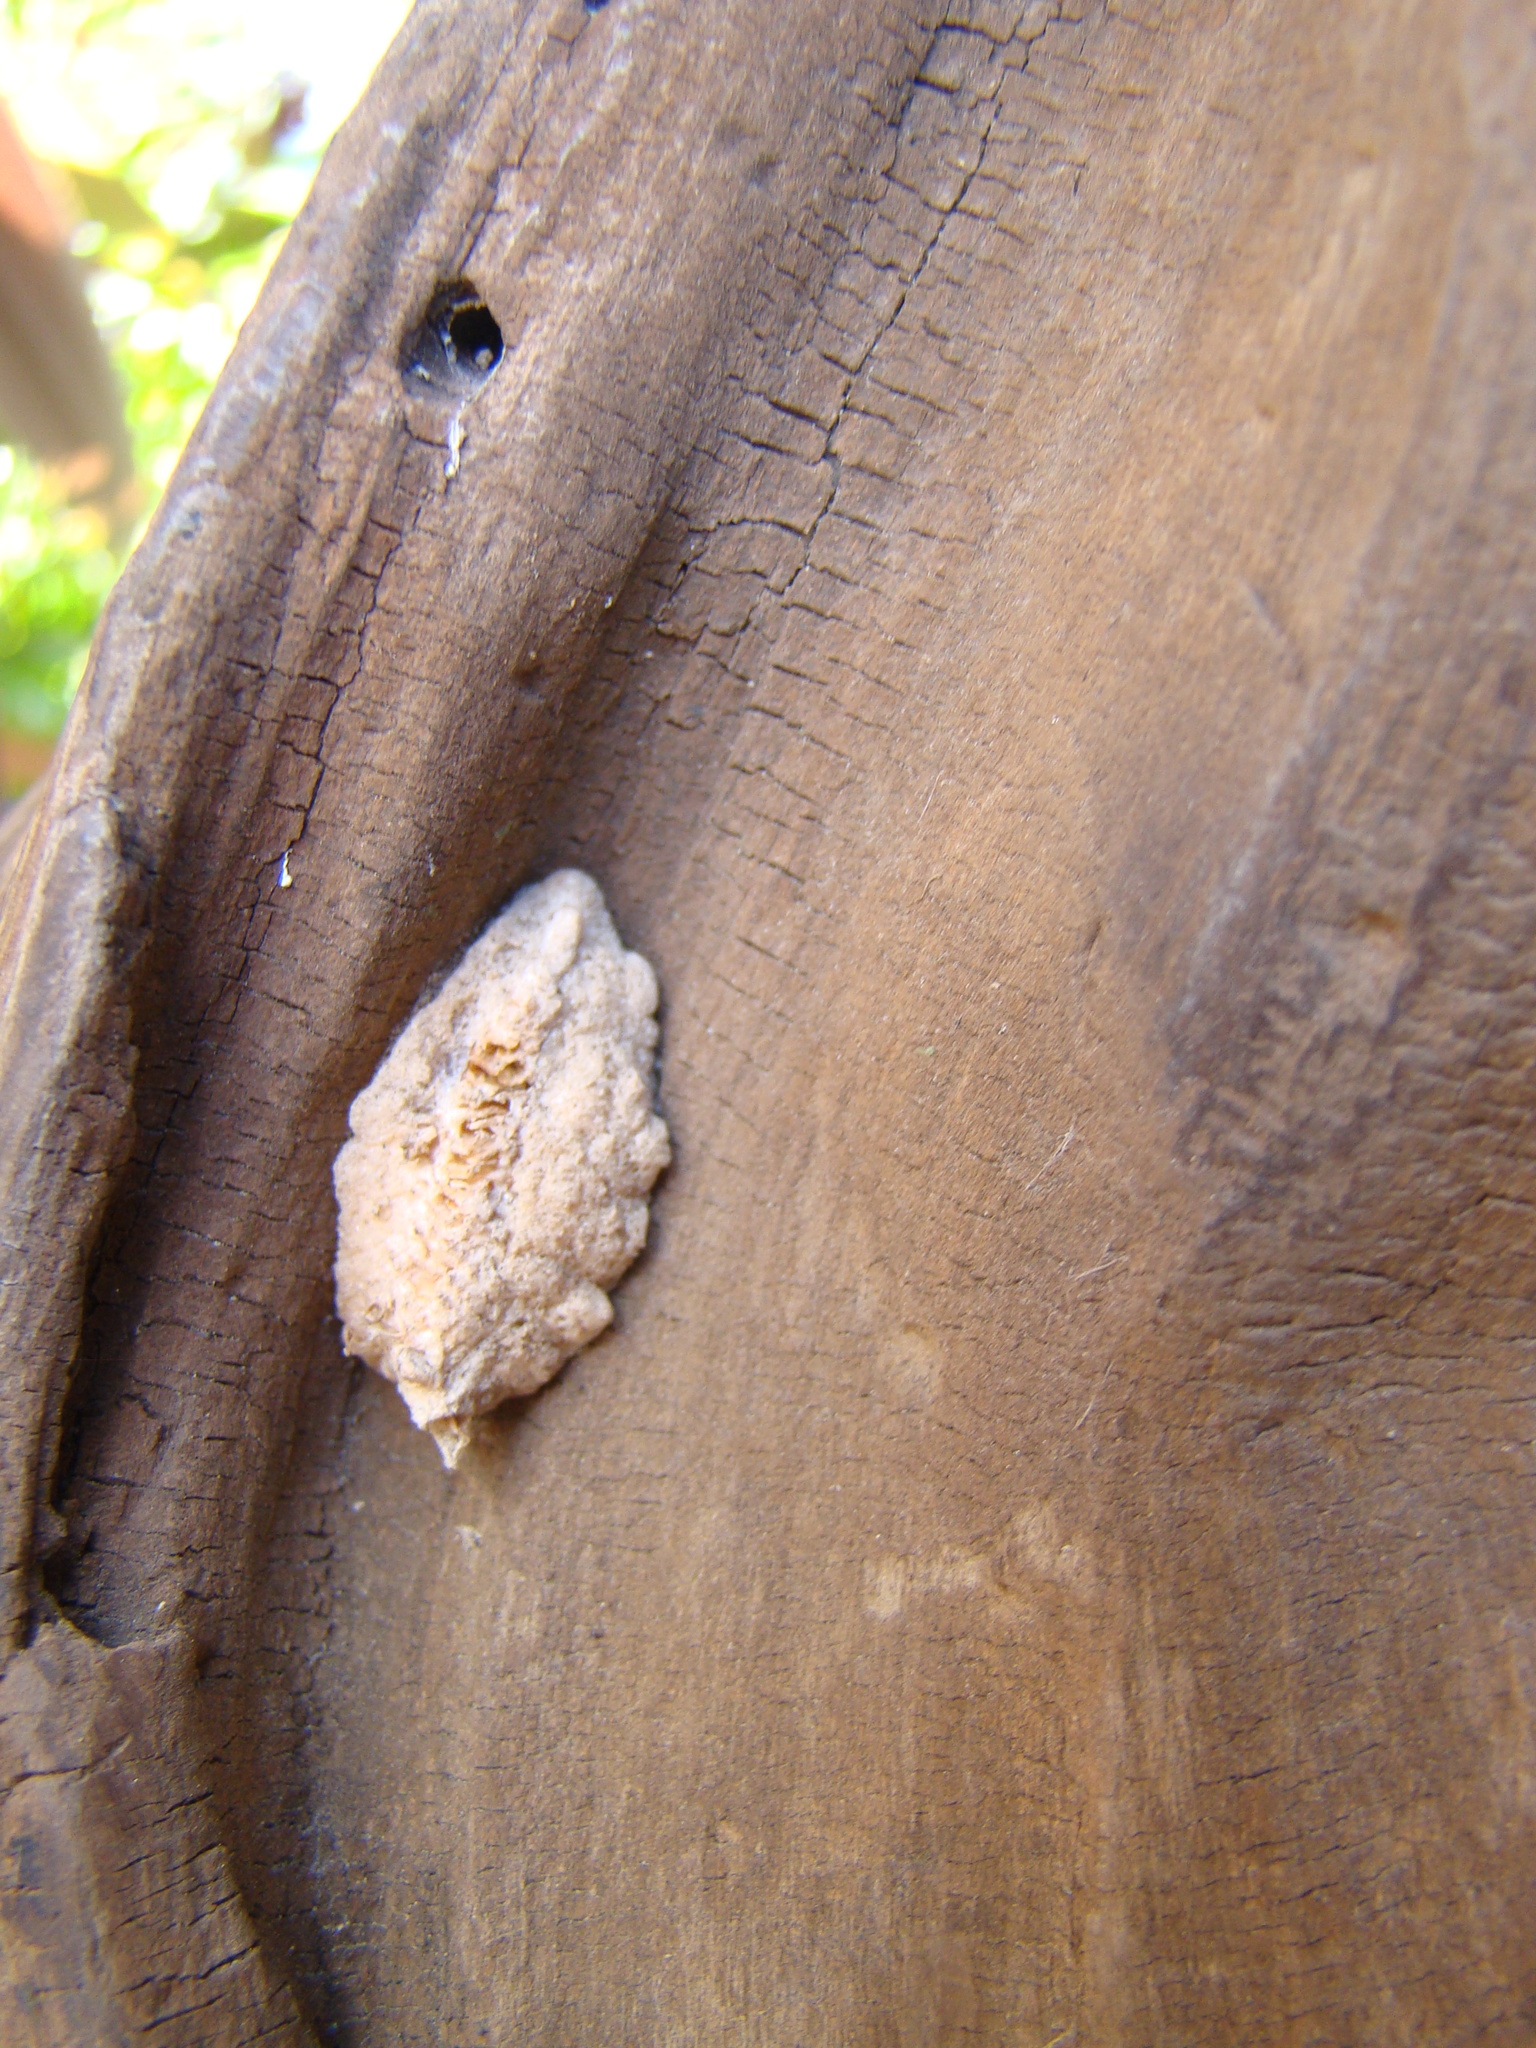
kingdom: Animalia
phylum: Arthropoda
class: Insecta
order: Mantodea
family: Miomantidae
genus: Miomantis
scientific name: Miomantis caffra
